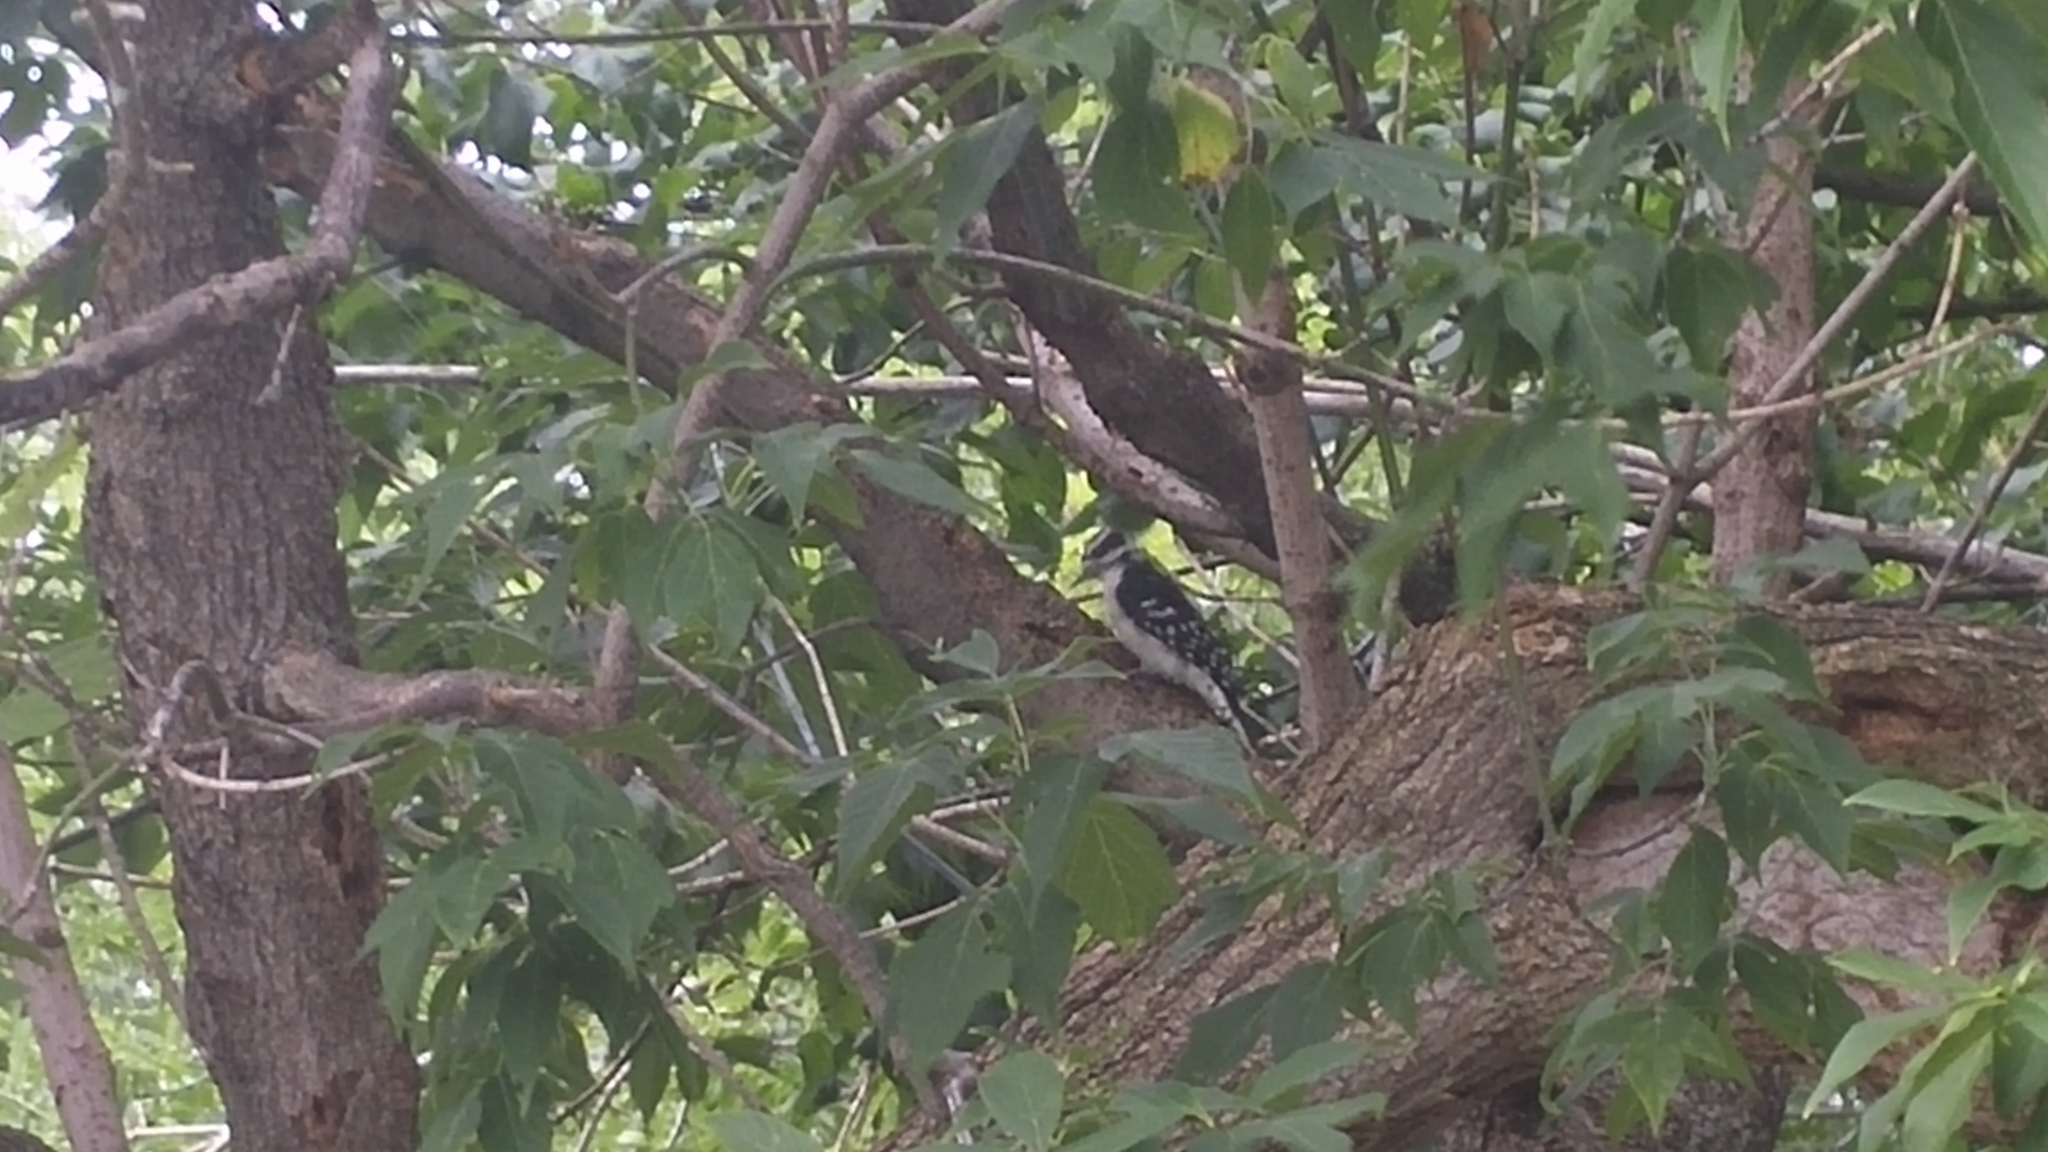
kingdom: Animalia
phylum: Chordata
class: Aves
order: Piciformes
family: Picidae
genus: Dryobates
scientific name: Dryobates pubescens
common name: Downy woodpecker
